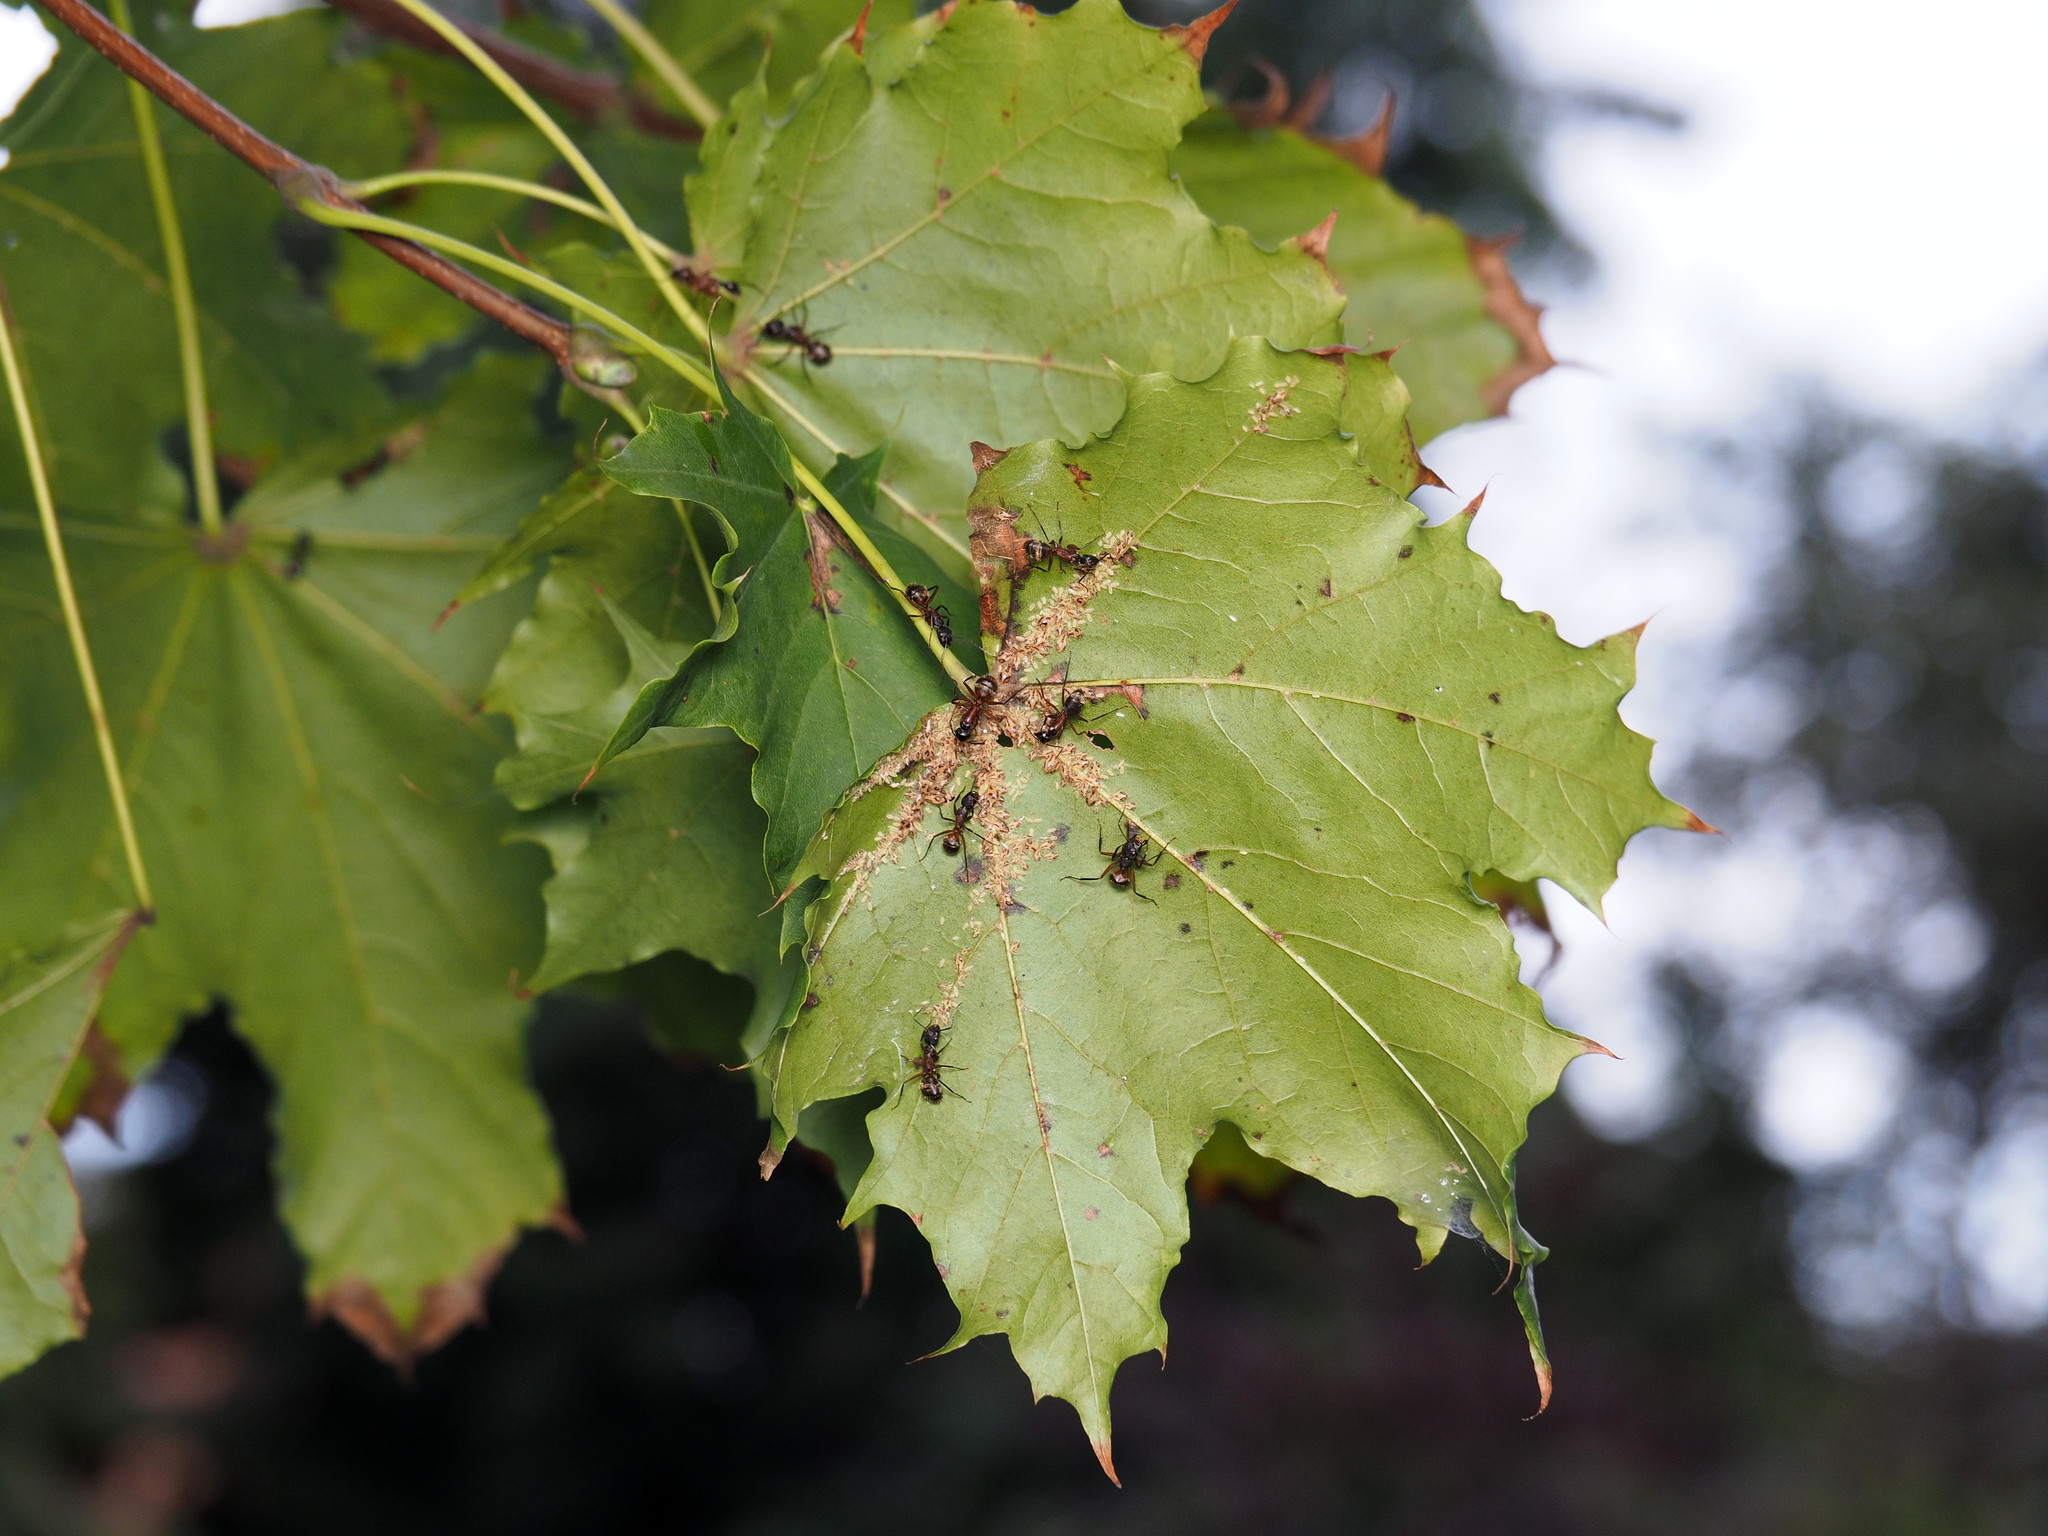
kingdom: Animalia
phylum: Arthropoda
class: Insecta
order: Hemiptera
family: Aphididae
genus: Periphyllus
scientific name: Periphyllus lyropictus
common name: Norway maple aphid
